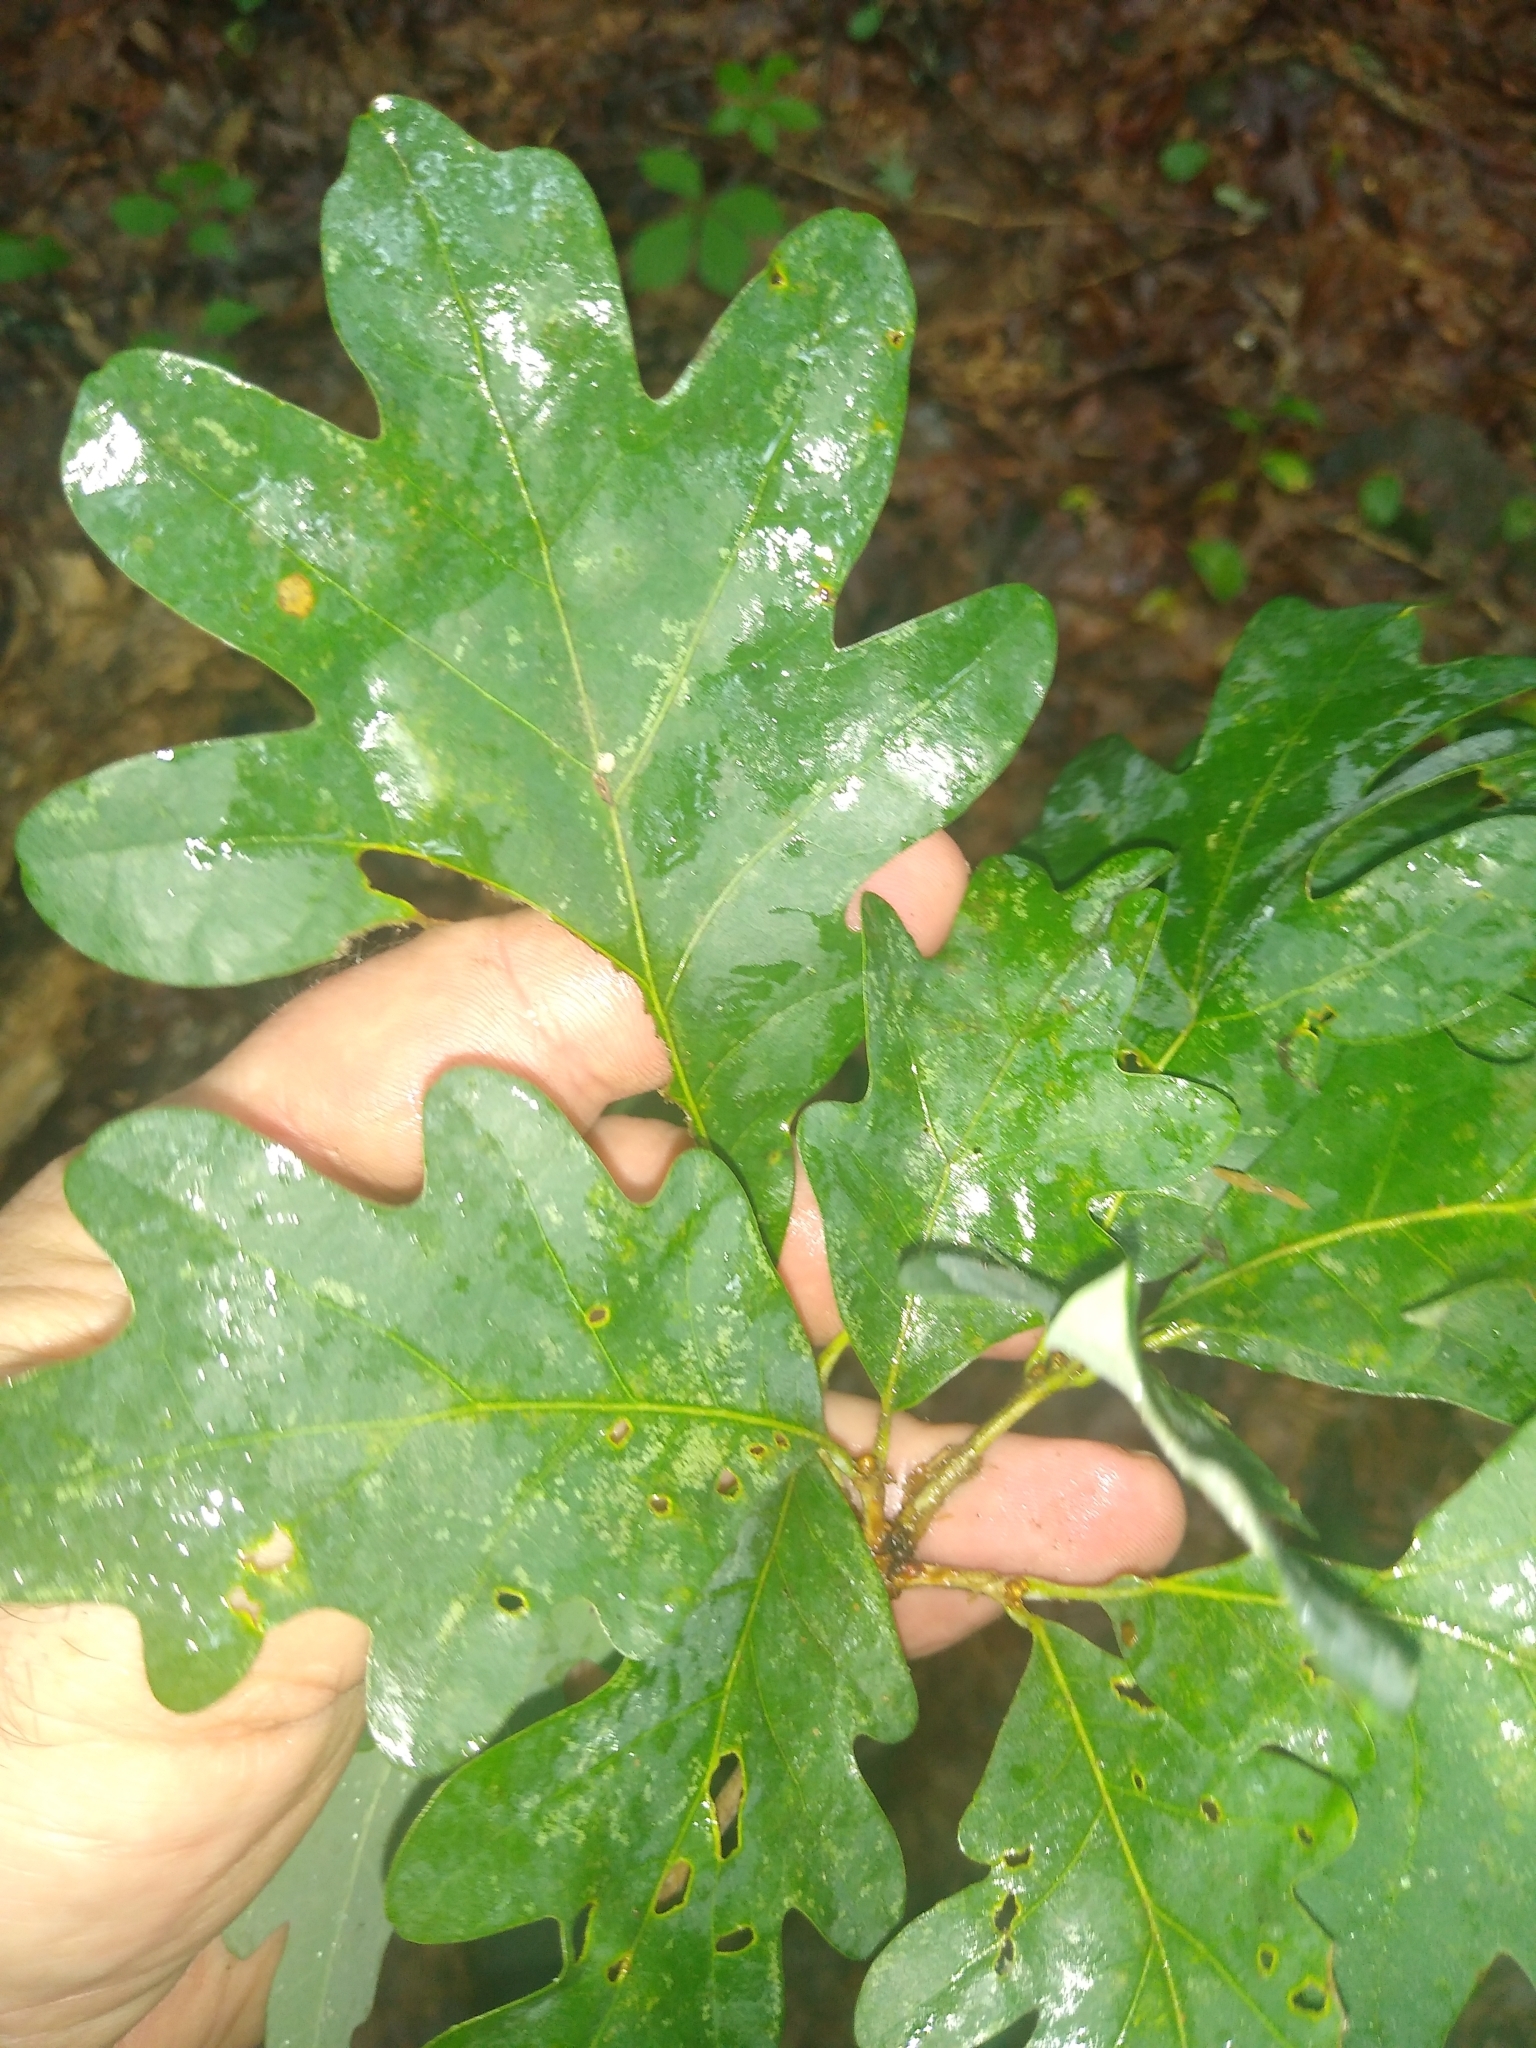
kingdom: Plantae
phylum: Tracheophyta
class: Magnoliopsida
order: Fagales
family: Fagaceae
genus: Quercus
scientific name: Quercus alba
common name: White oak
